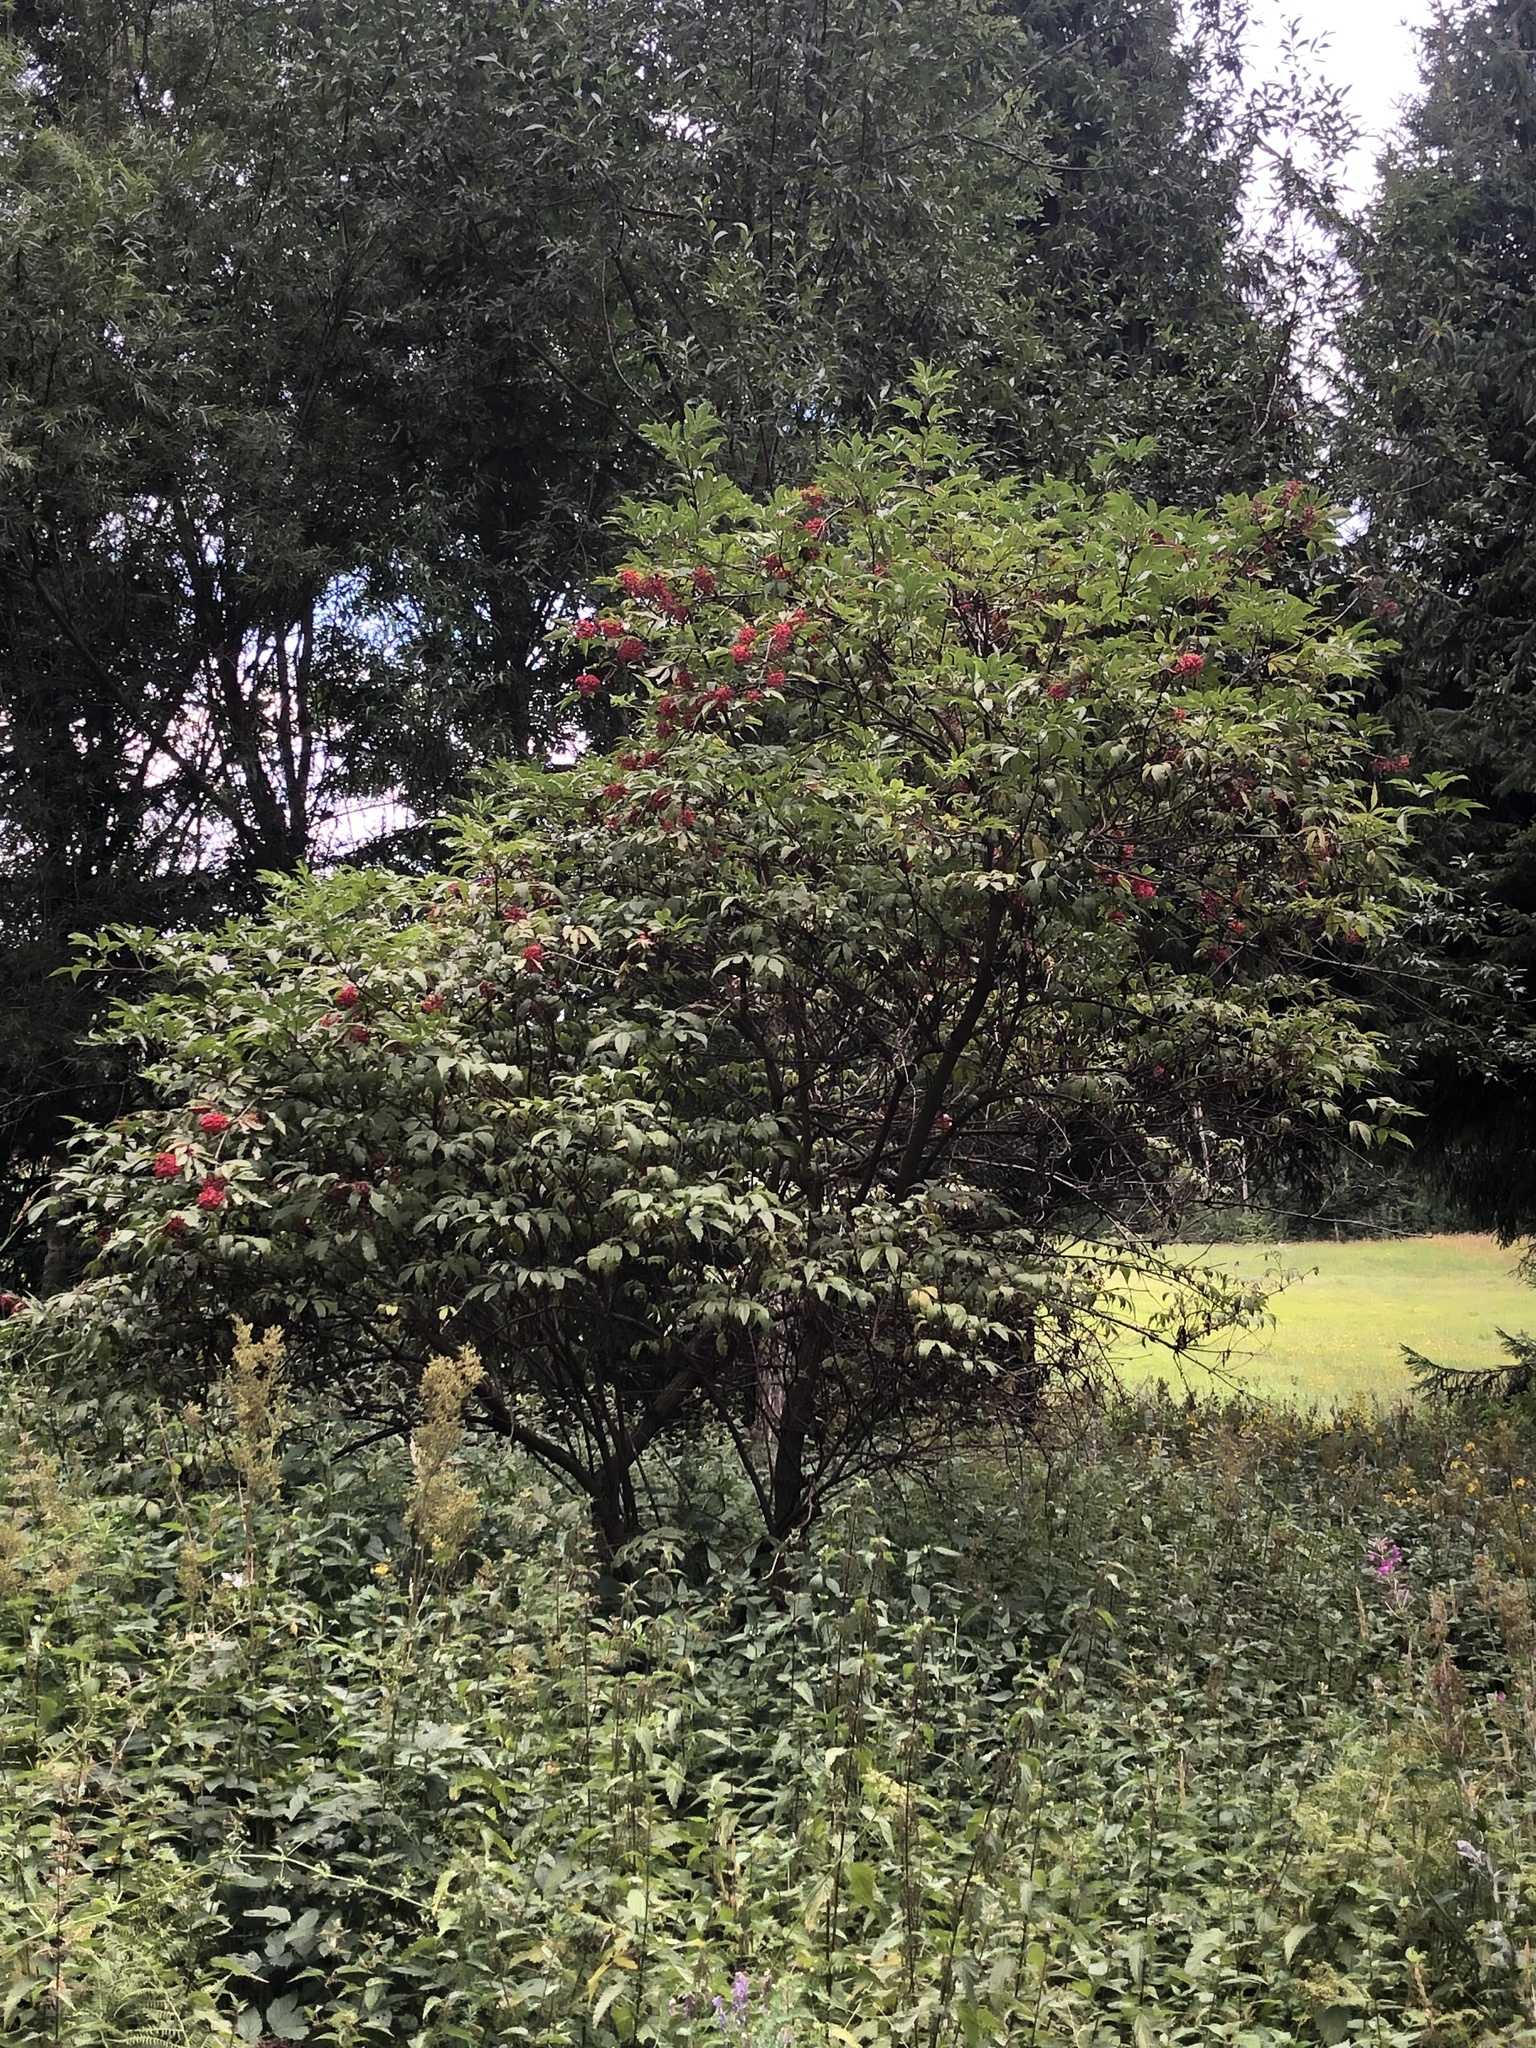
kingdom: Plantae
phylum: Tracheophyta
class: Magnoliopsida
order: Dipsacales
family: Viburnaceae
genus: Sambucus
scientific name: Sambucus racemosa
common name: Red-berried elder
